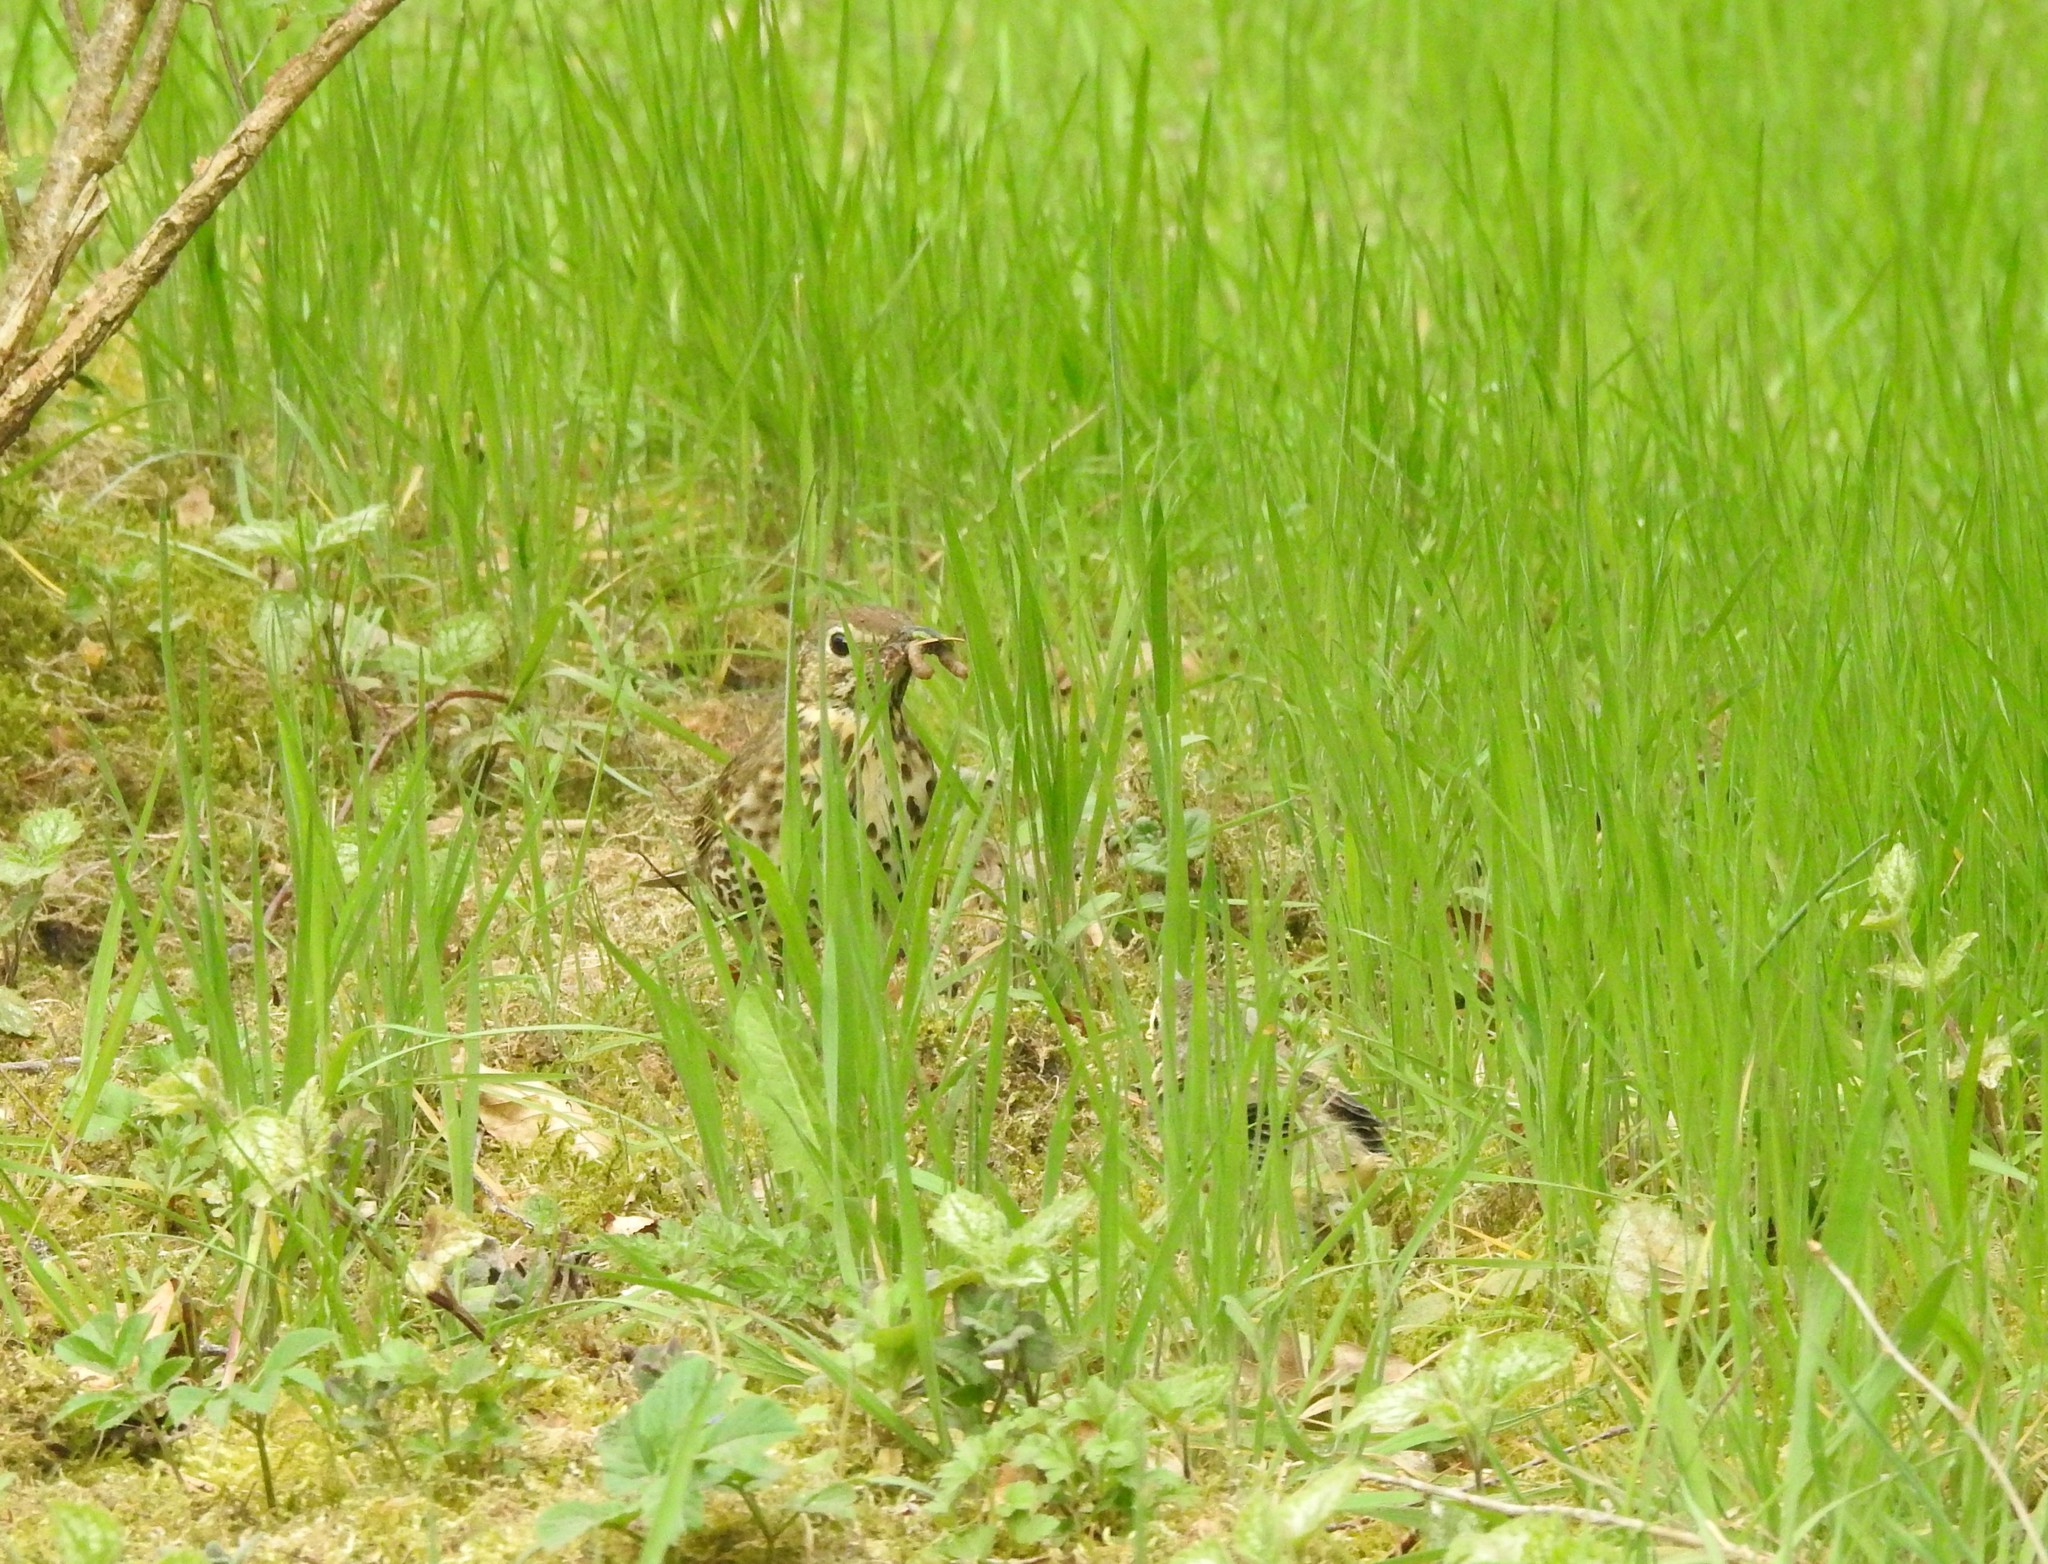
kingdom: Animalia
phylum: Chordata
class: Aves
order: Passeriformes
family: Turdidae
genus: Turdus
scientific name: Turdus philomelos
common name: Song thrush
